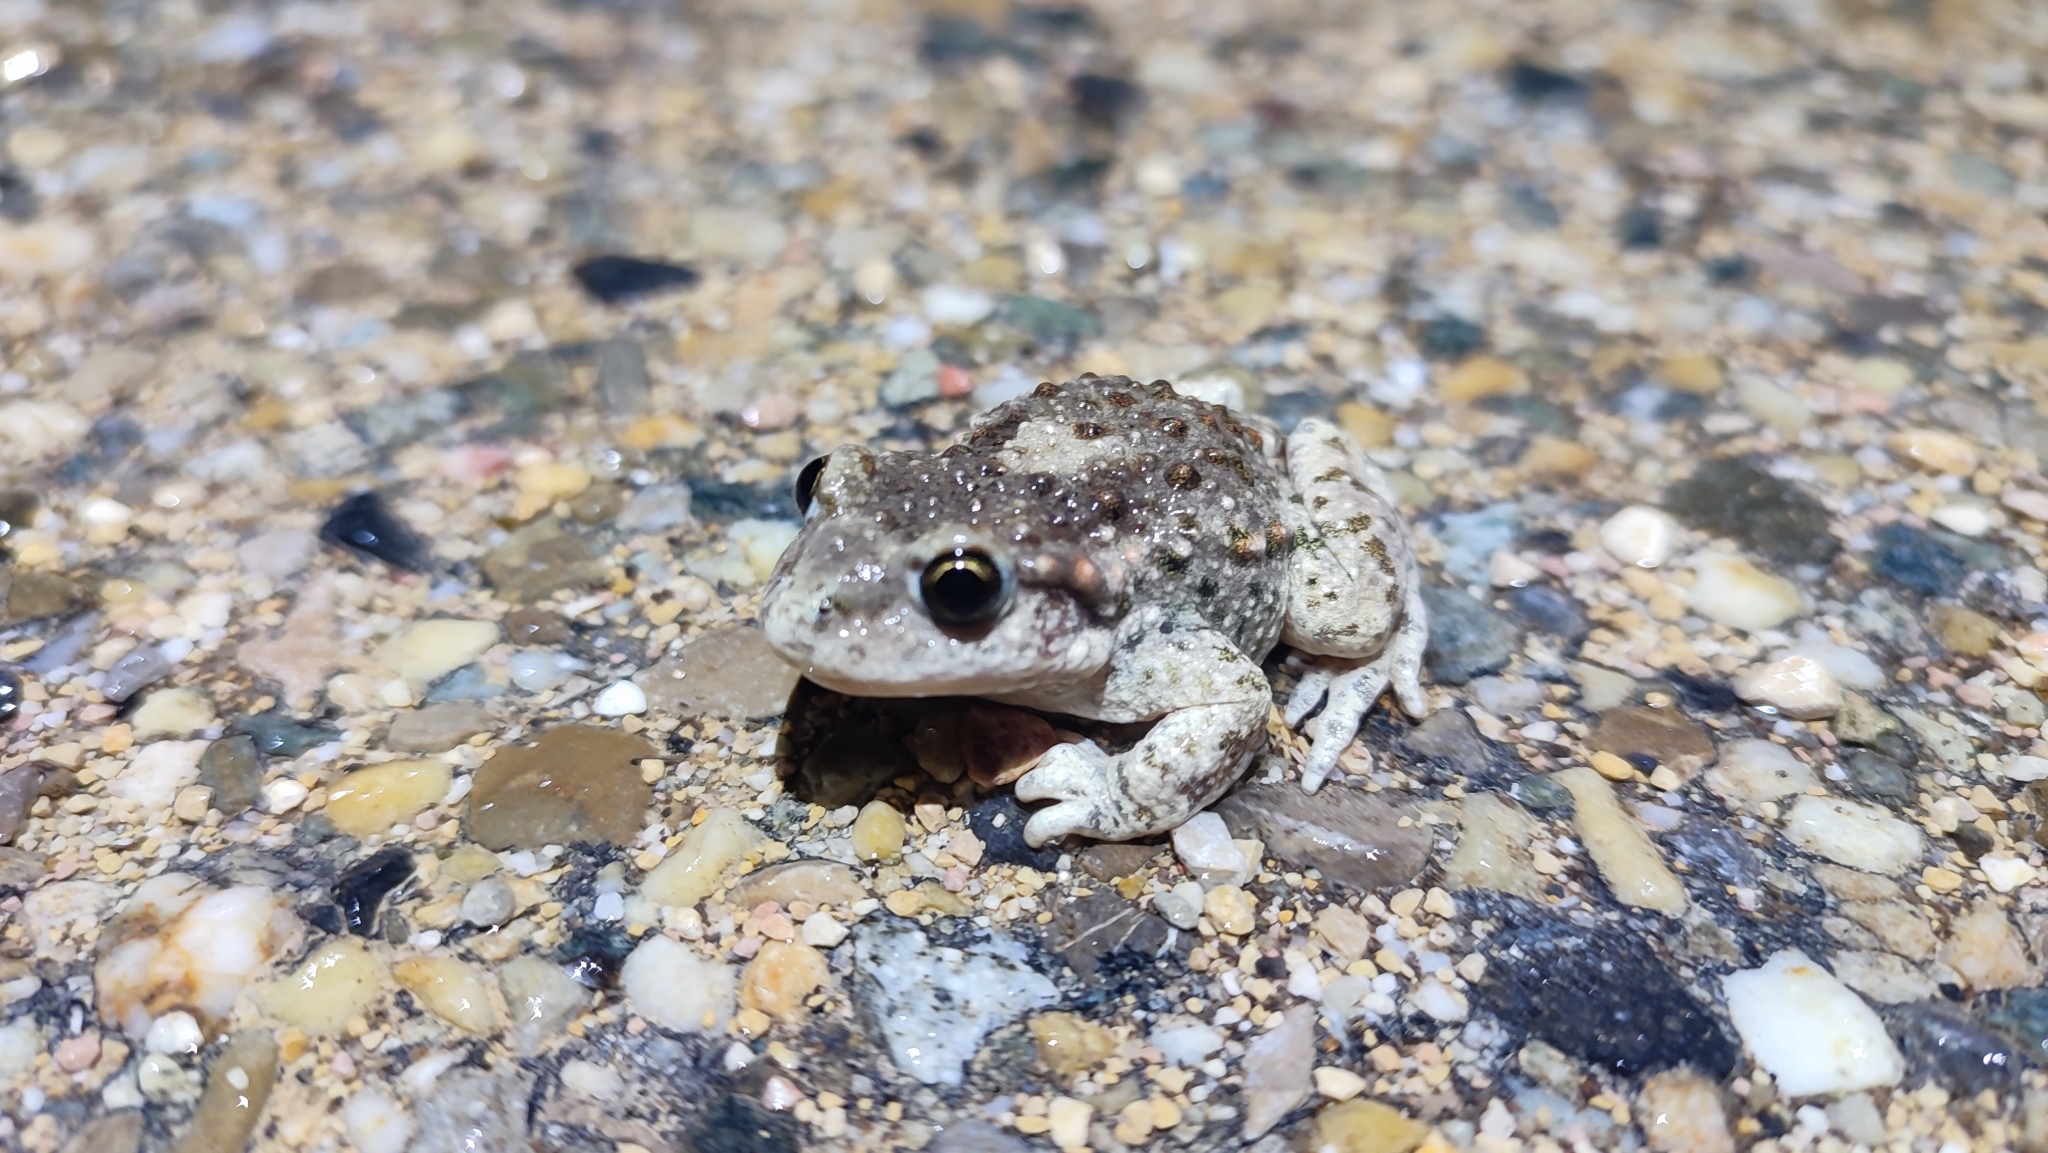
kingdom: Animalia
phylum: Chordata
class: Amphibia
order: Anura
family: Alytidae
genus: Alytes
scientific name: Alytes obstetricans
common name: Midwife toad
